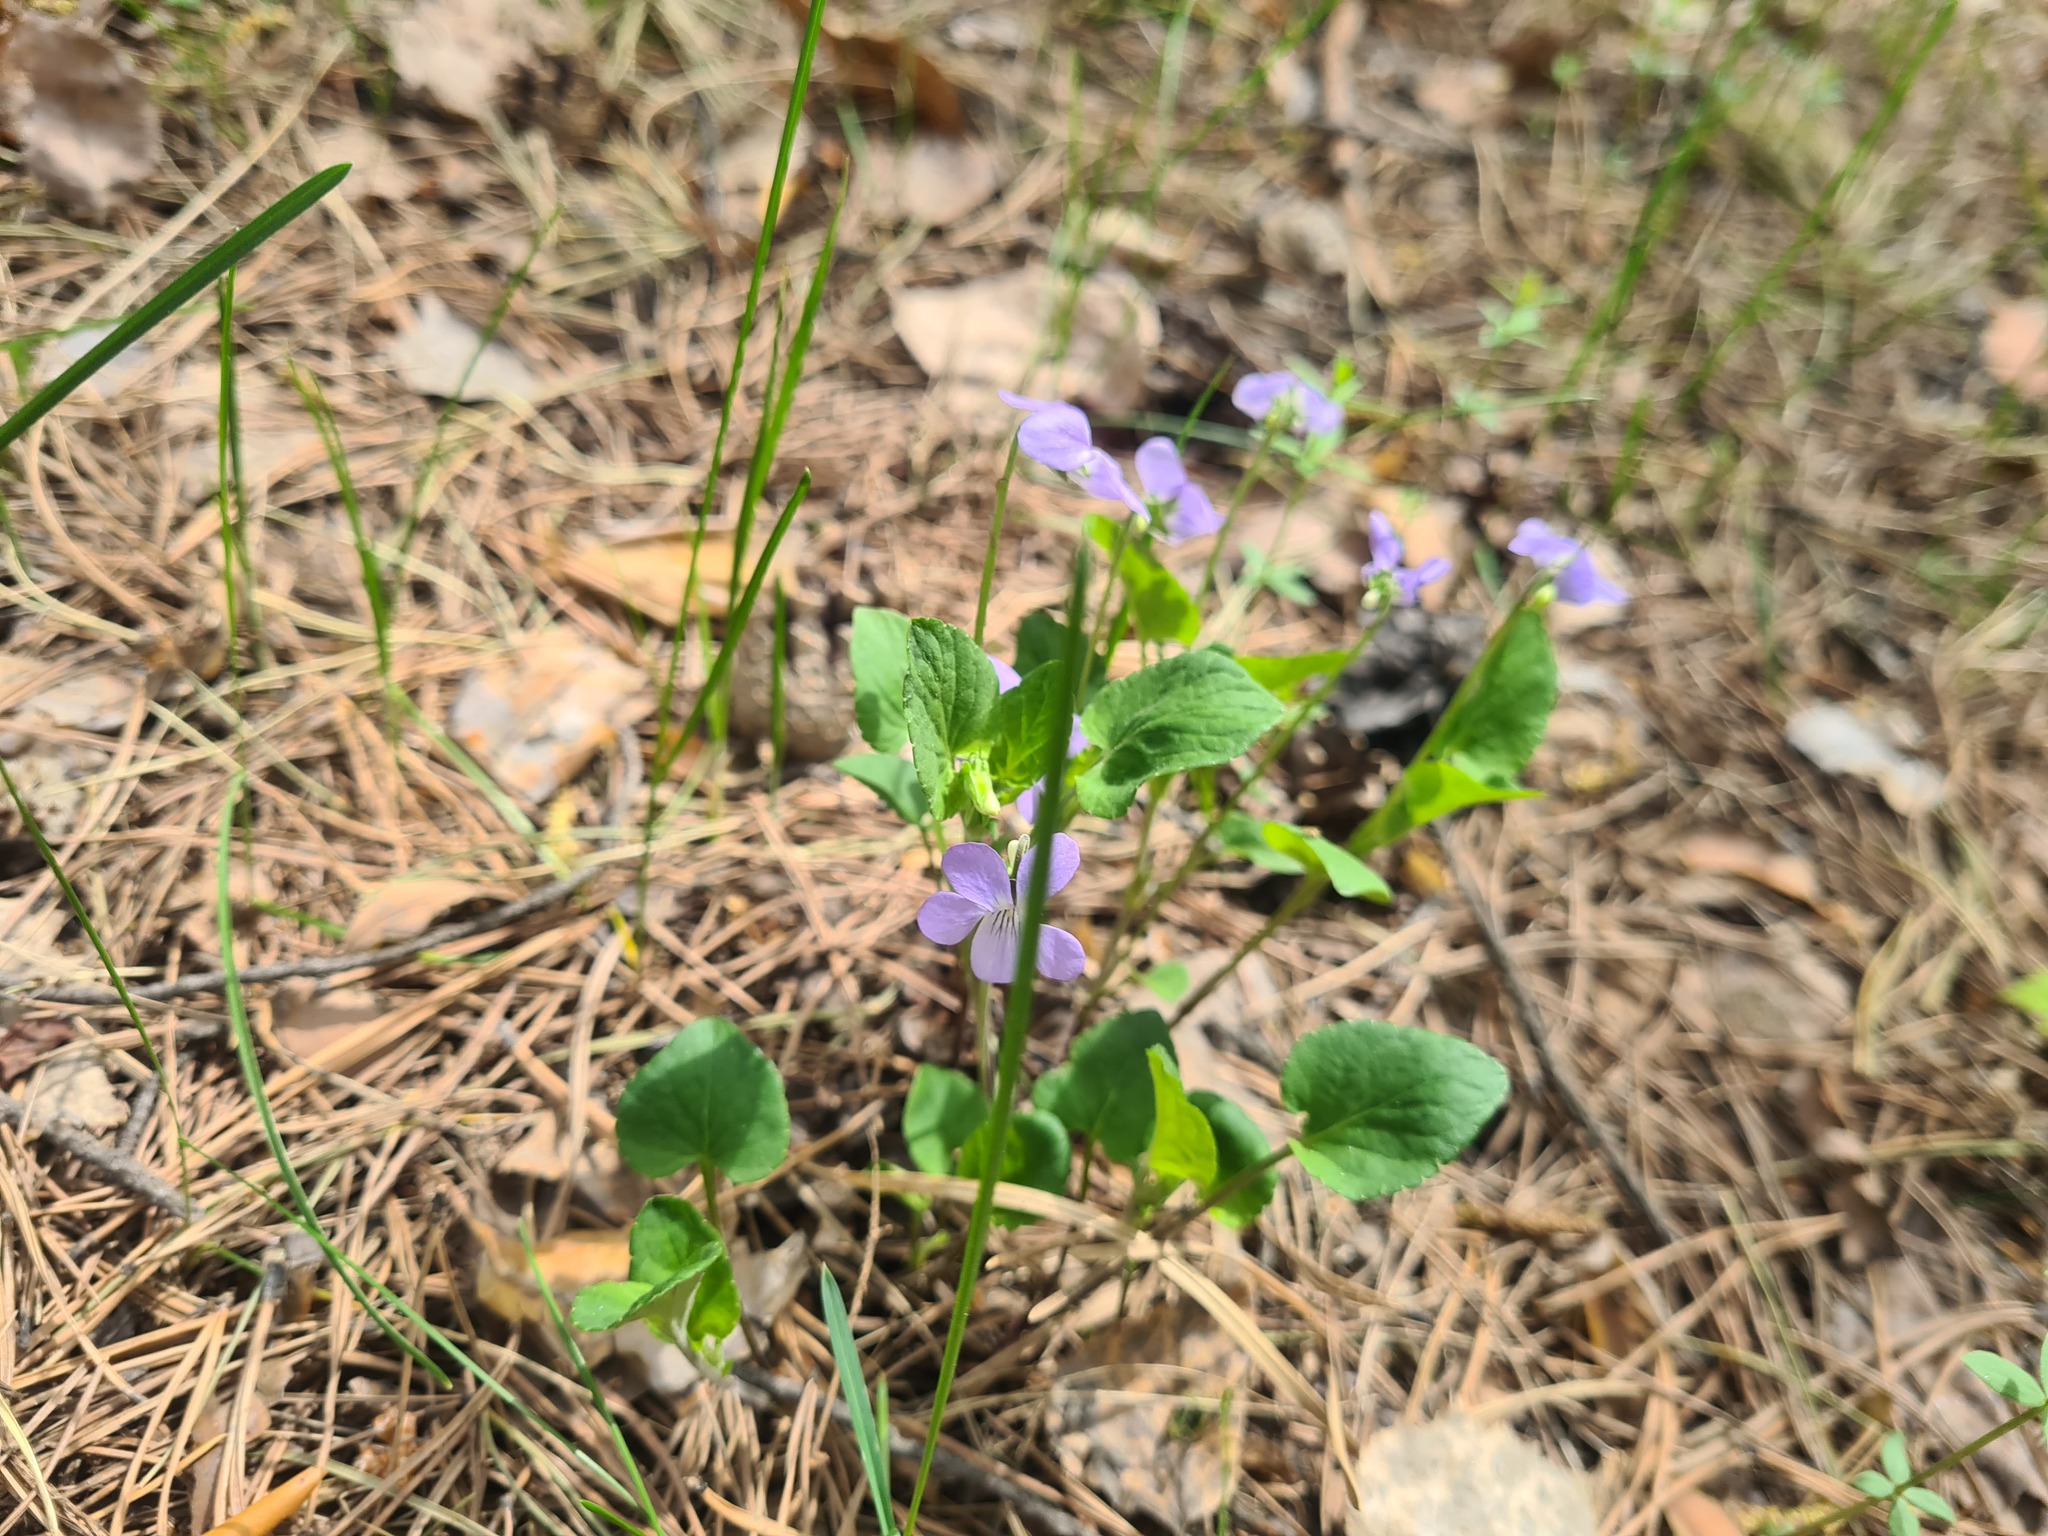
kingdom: Plantae
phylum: Tracheophyta
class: Magnoliopsida
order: Malpighiales
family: Violaceae
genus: Viola
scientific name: Viola
